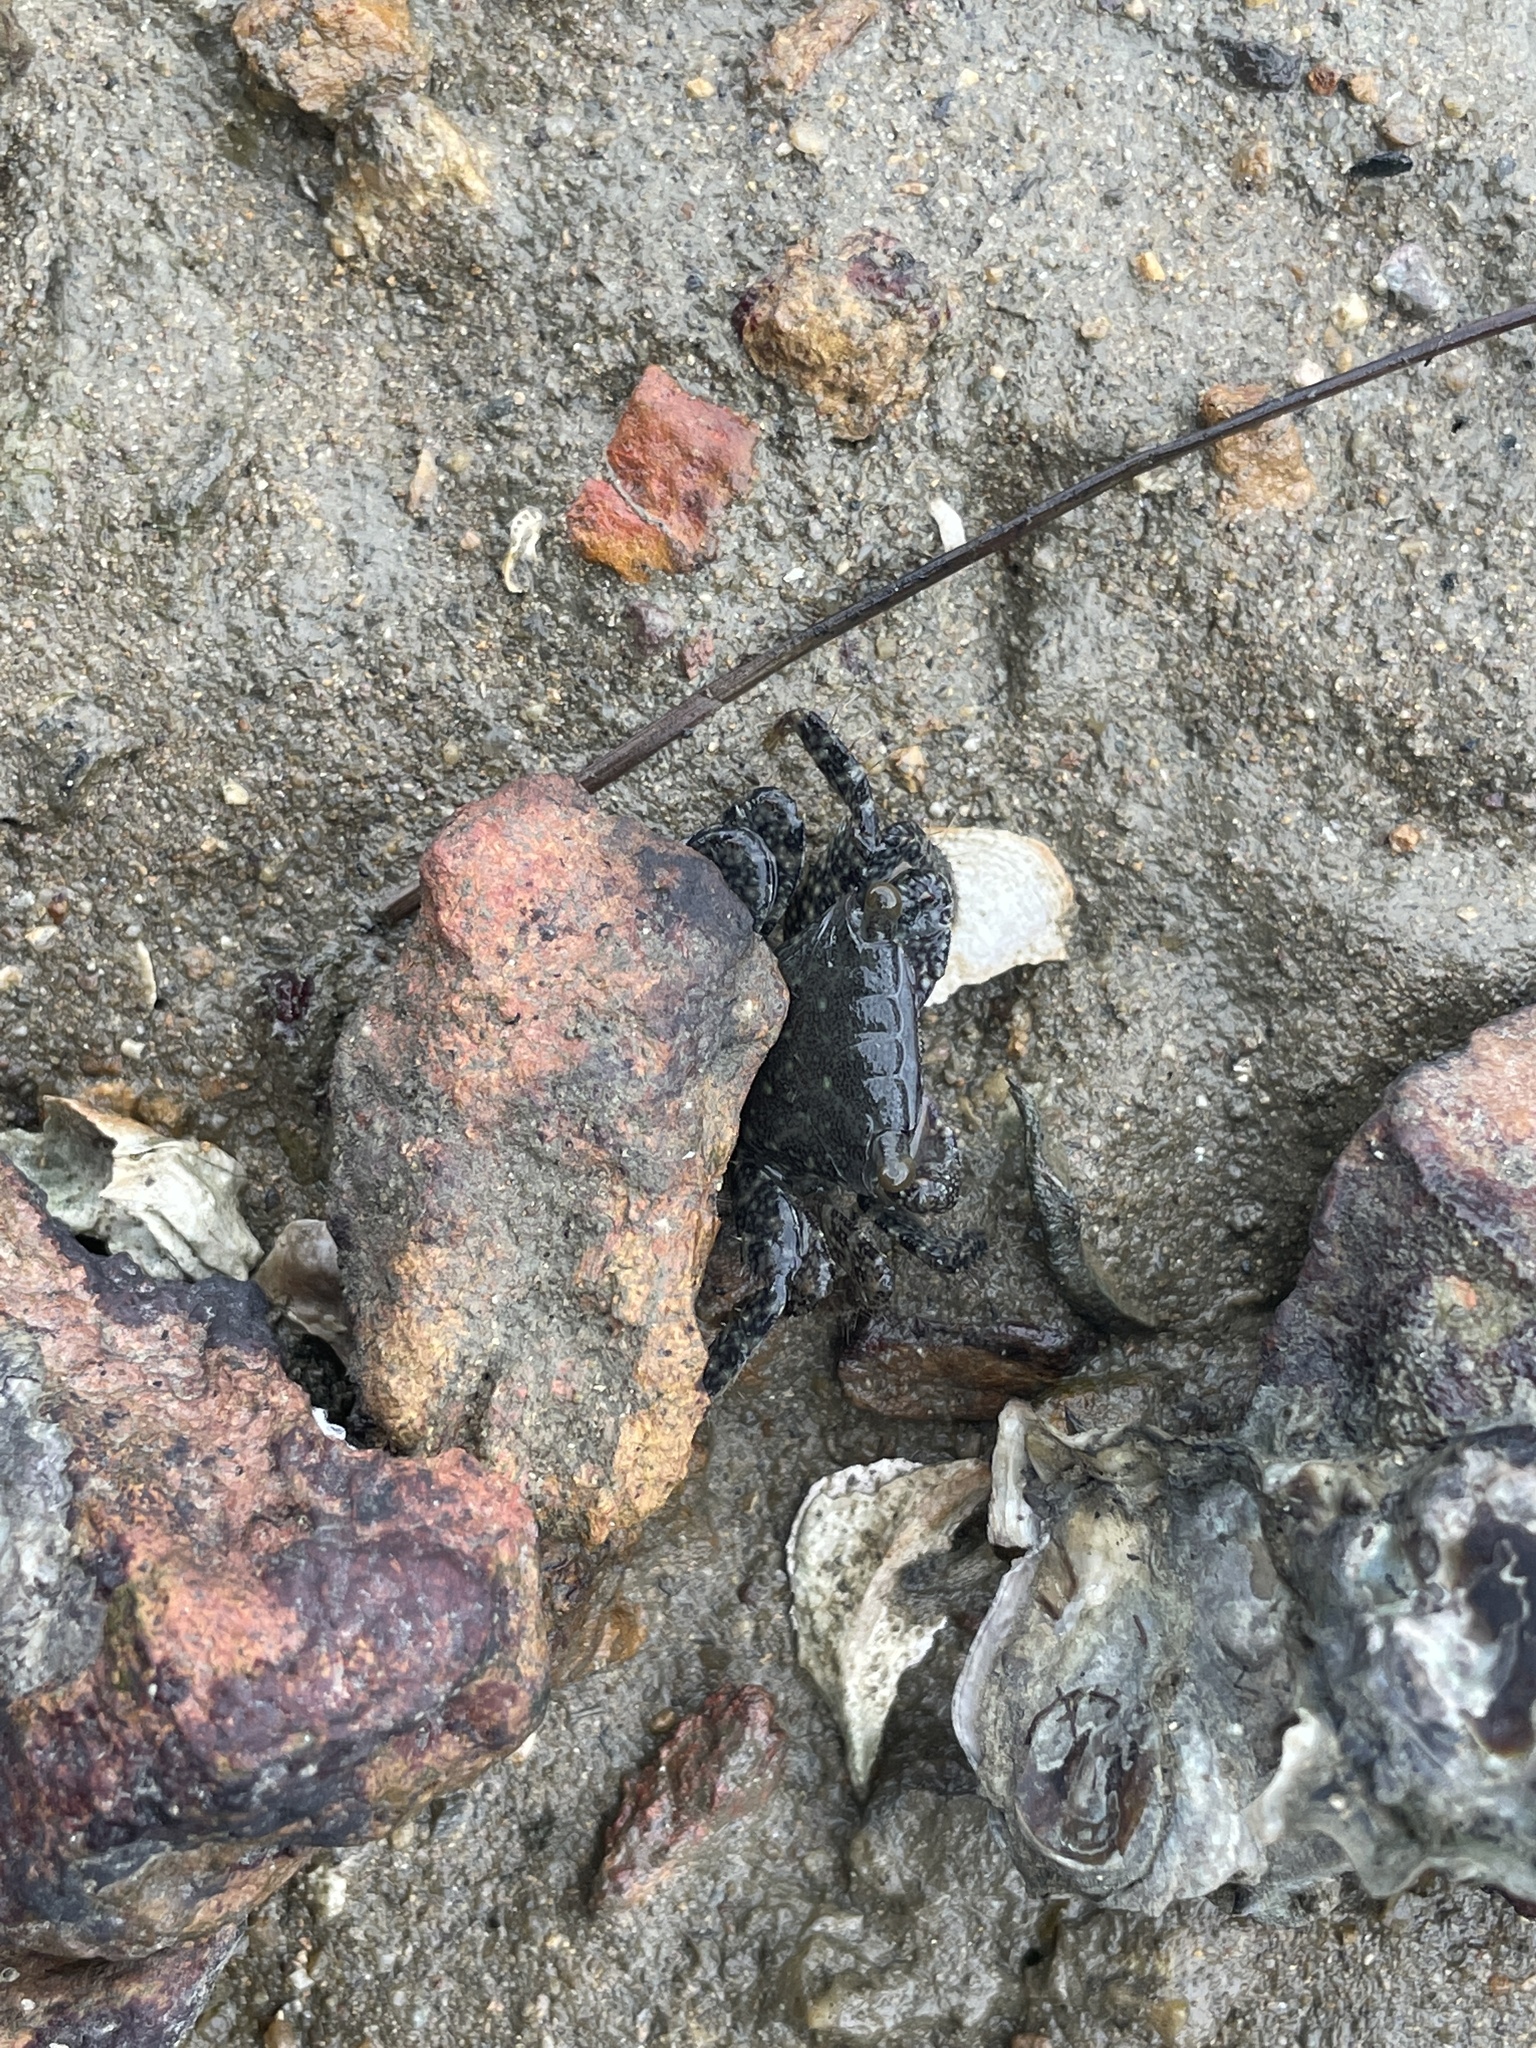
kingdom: Animalia
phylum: Arthropoda
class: Malacostraca
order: Decapoda
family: Grapsidae
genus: Metopograpsus
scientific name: Metopograpsus frontalis
